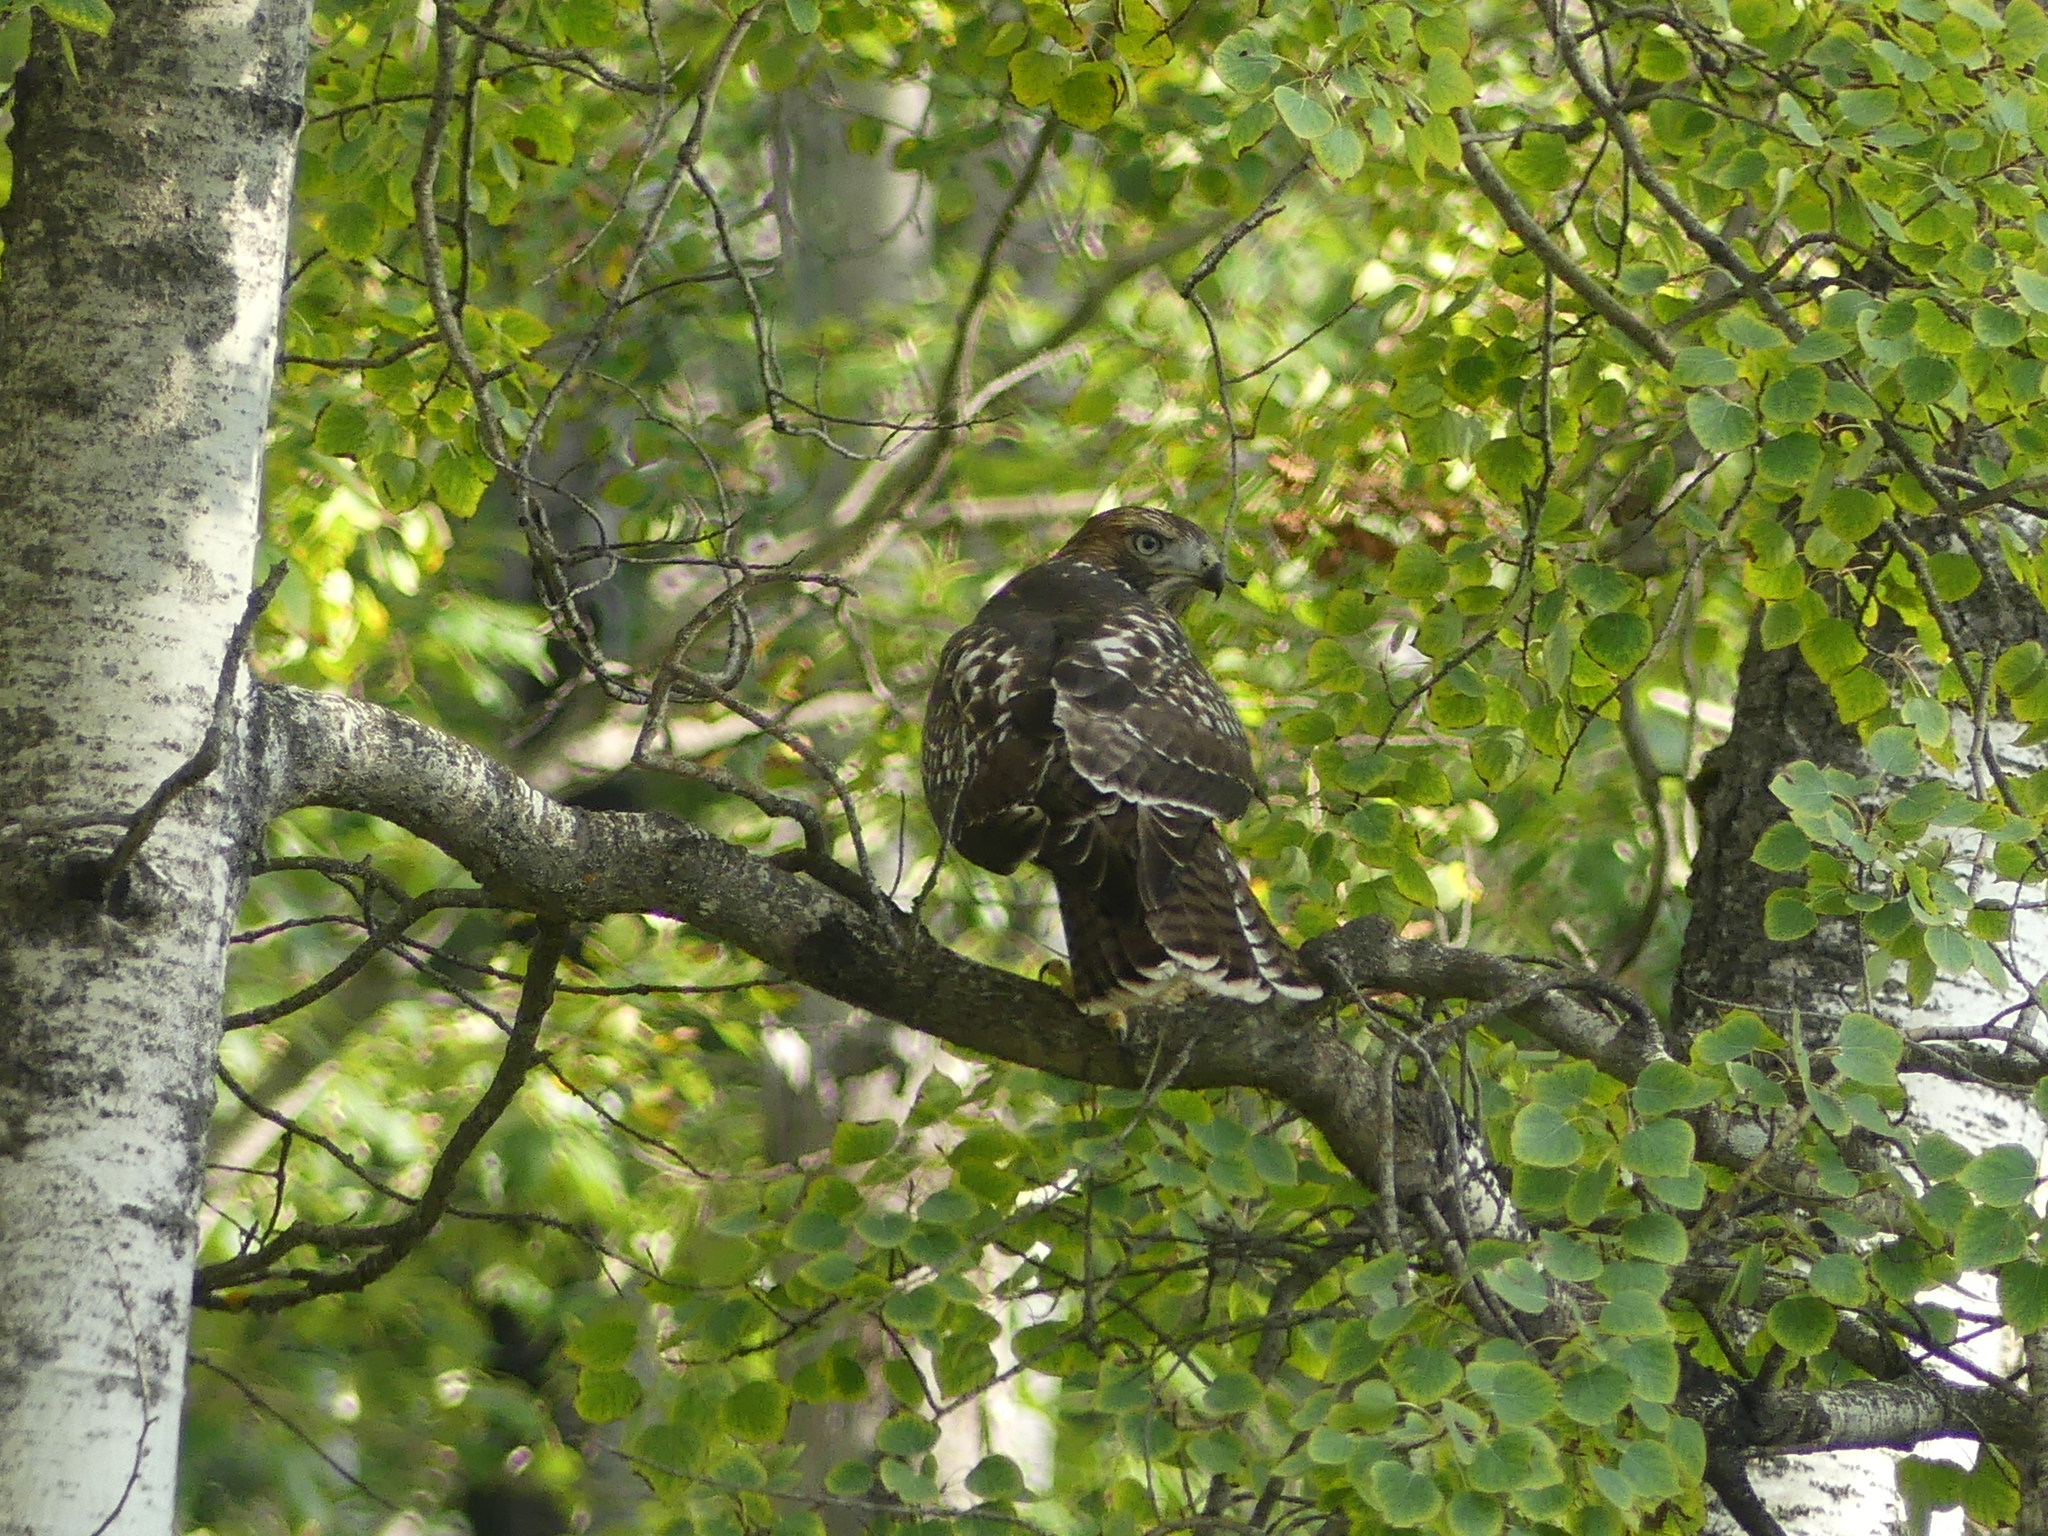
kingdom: Animalia
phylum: Chordata
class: Aves
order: Accipitriformes
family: Accipitridae
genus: Buteo
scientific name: Buteo jamaicensis
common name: Red-tailed hawk
